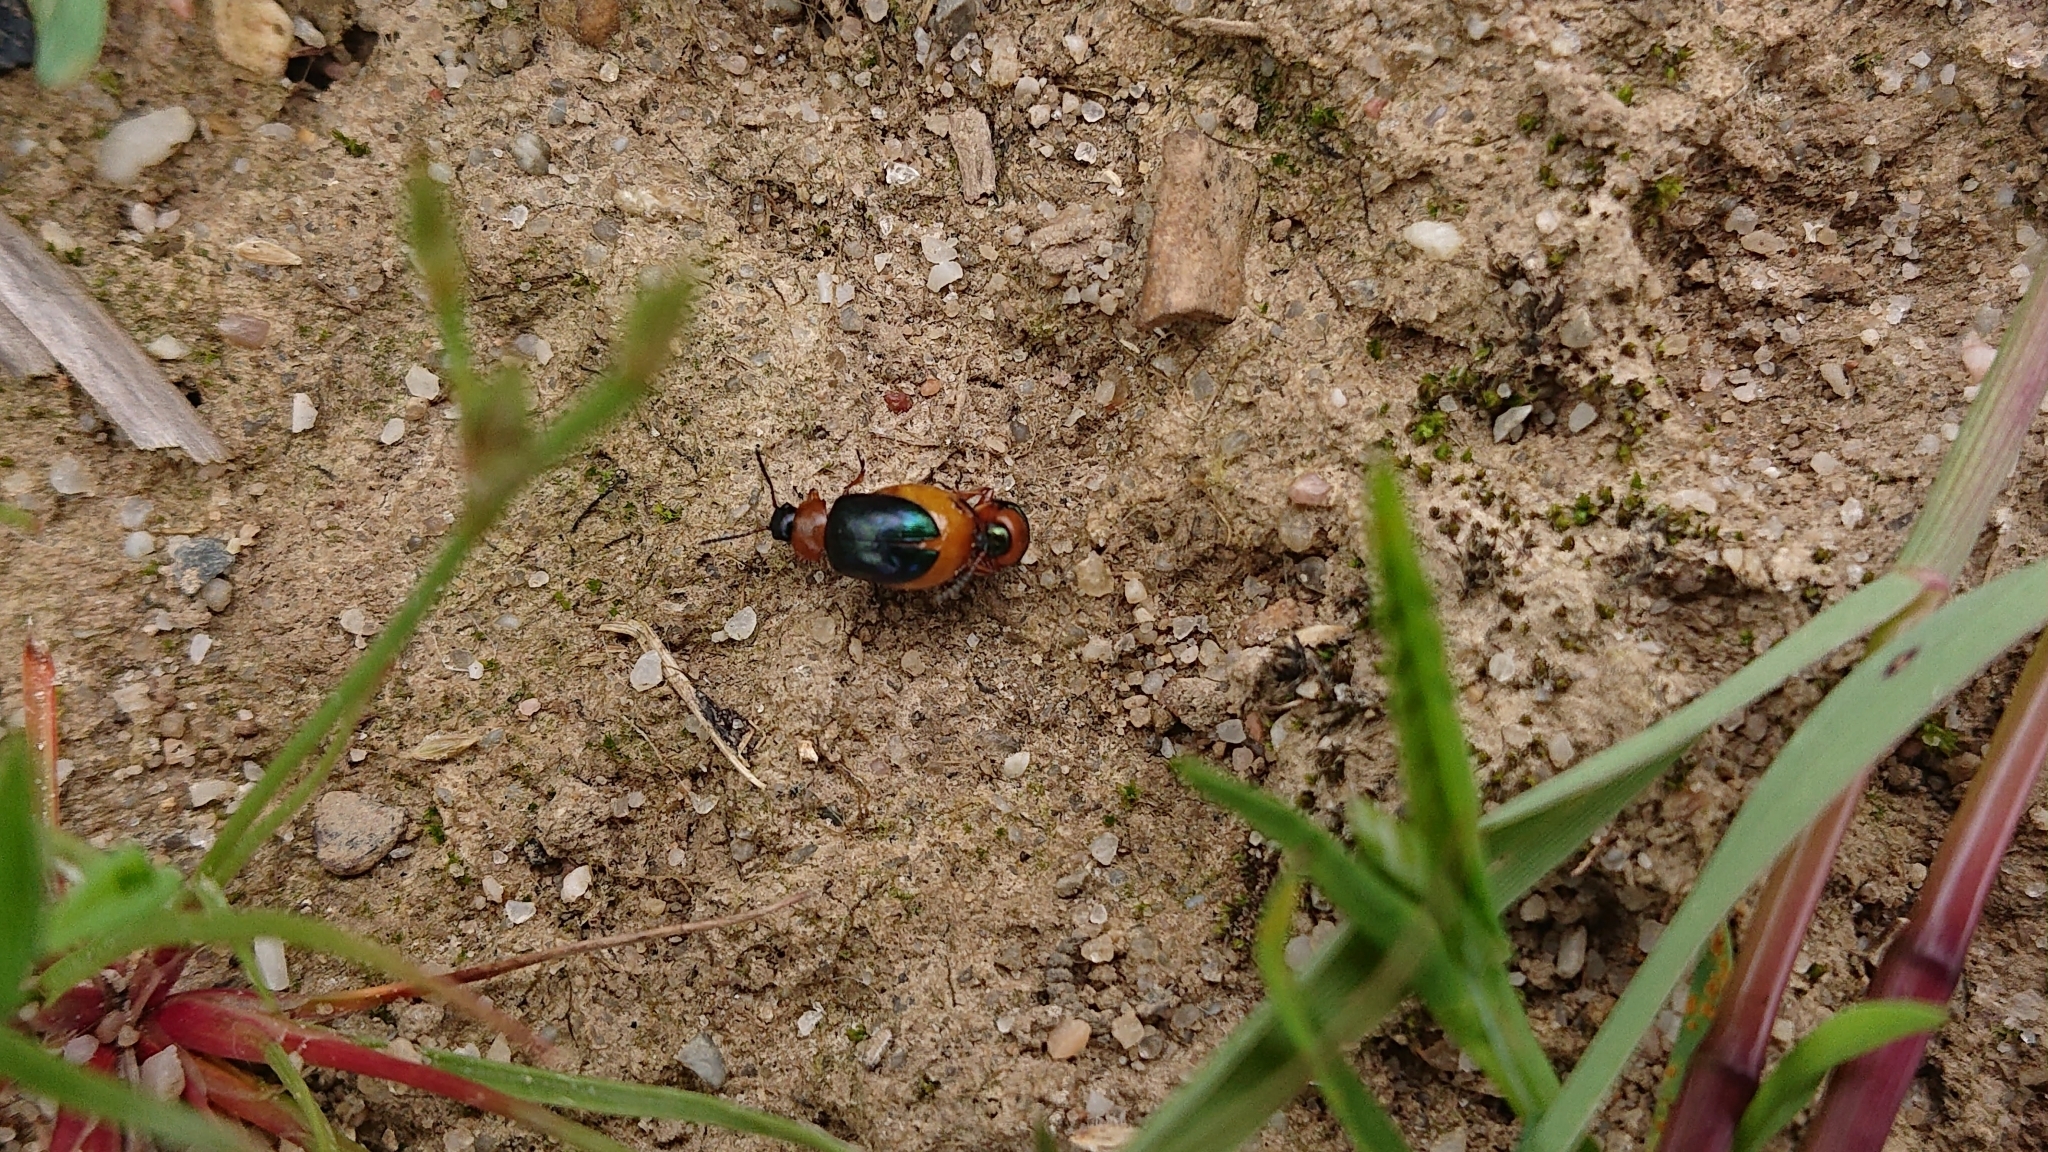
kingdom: Animalia
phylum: Arthropoda
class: Insecta
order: Coleoptera
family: Chrysomelidae
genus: Gastrophysa
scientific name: Gastrophysa polygoni
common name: Knotweed leaf beetle
